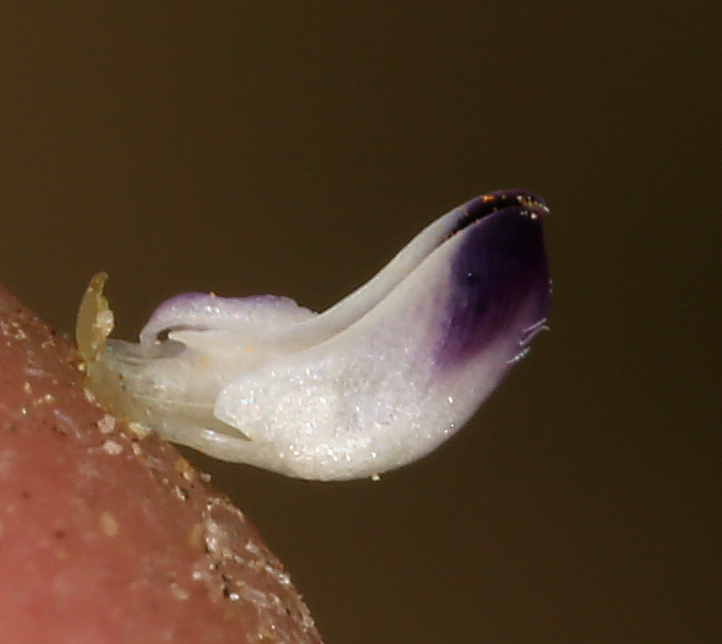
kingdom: Plantae
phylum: Tracheophyta
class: Magnoliopsida
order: Fabales
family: Fabaceae
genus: Astragalus
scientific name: Astragalus kentrophyta
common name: Prickly milk-vetch
